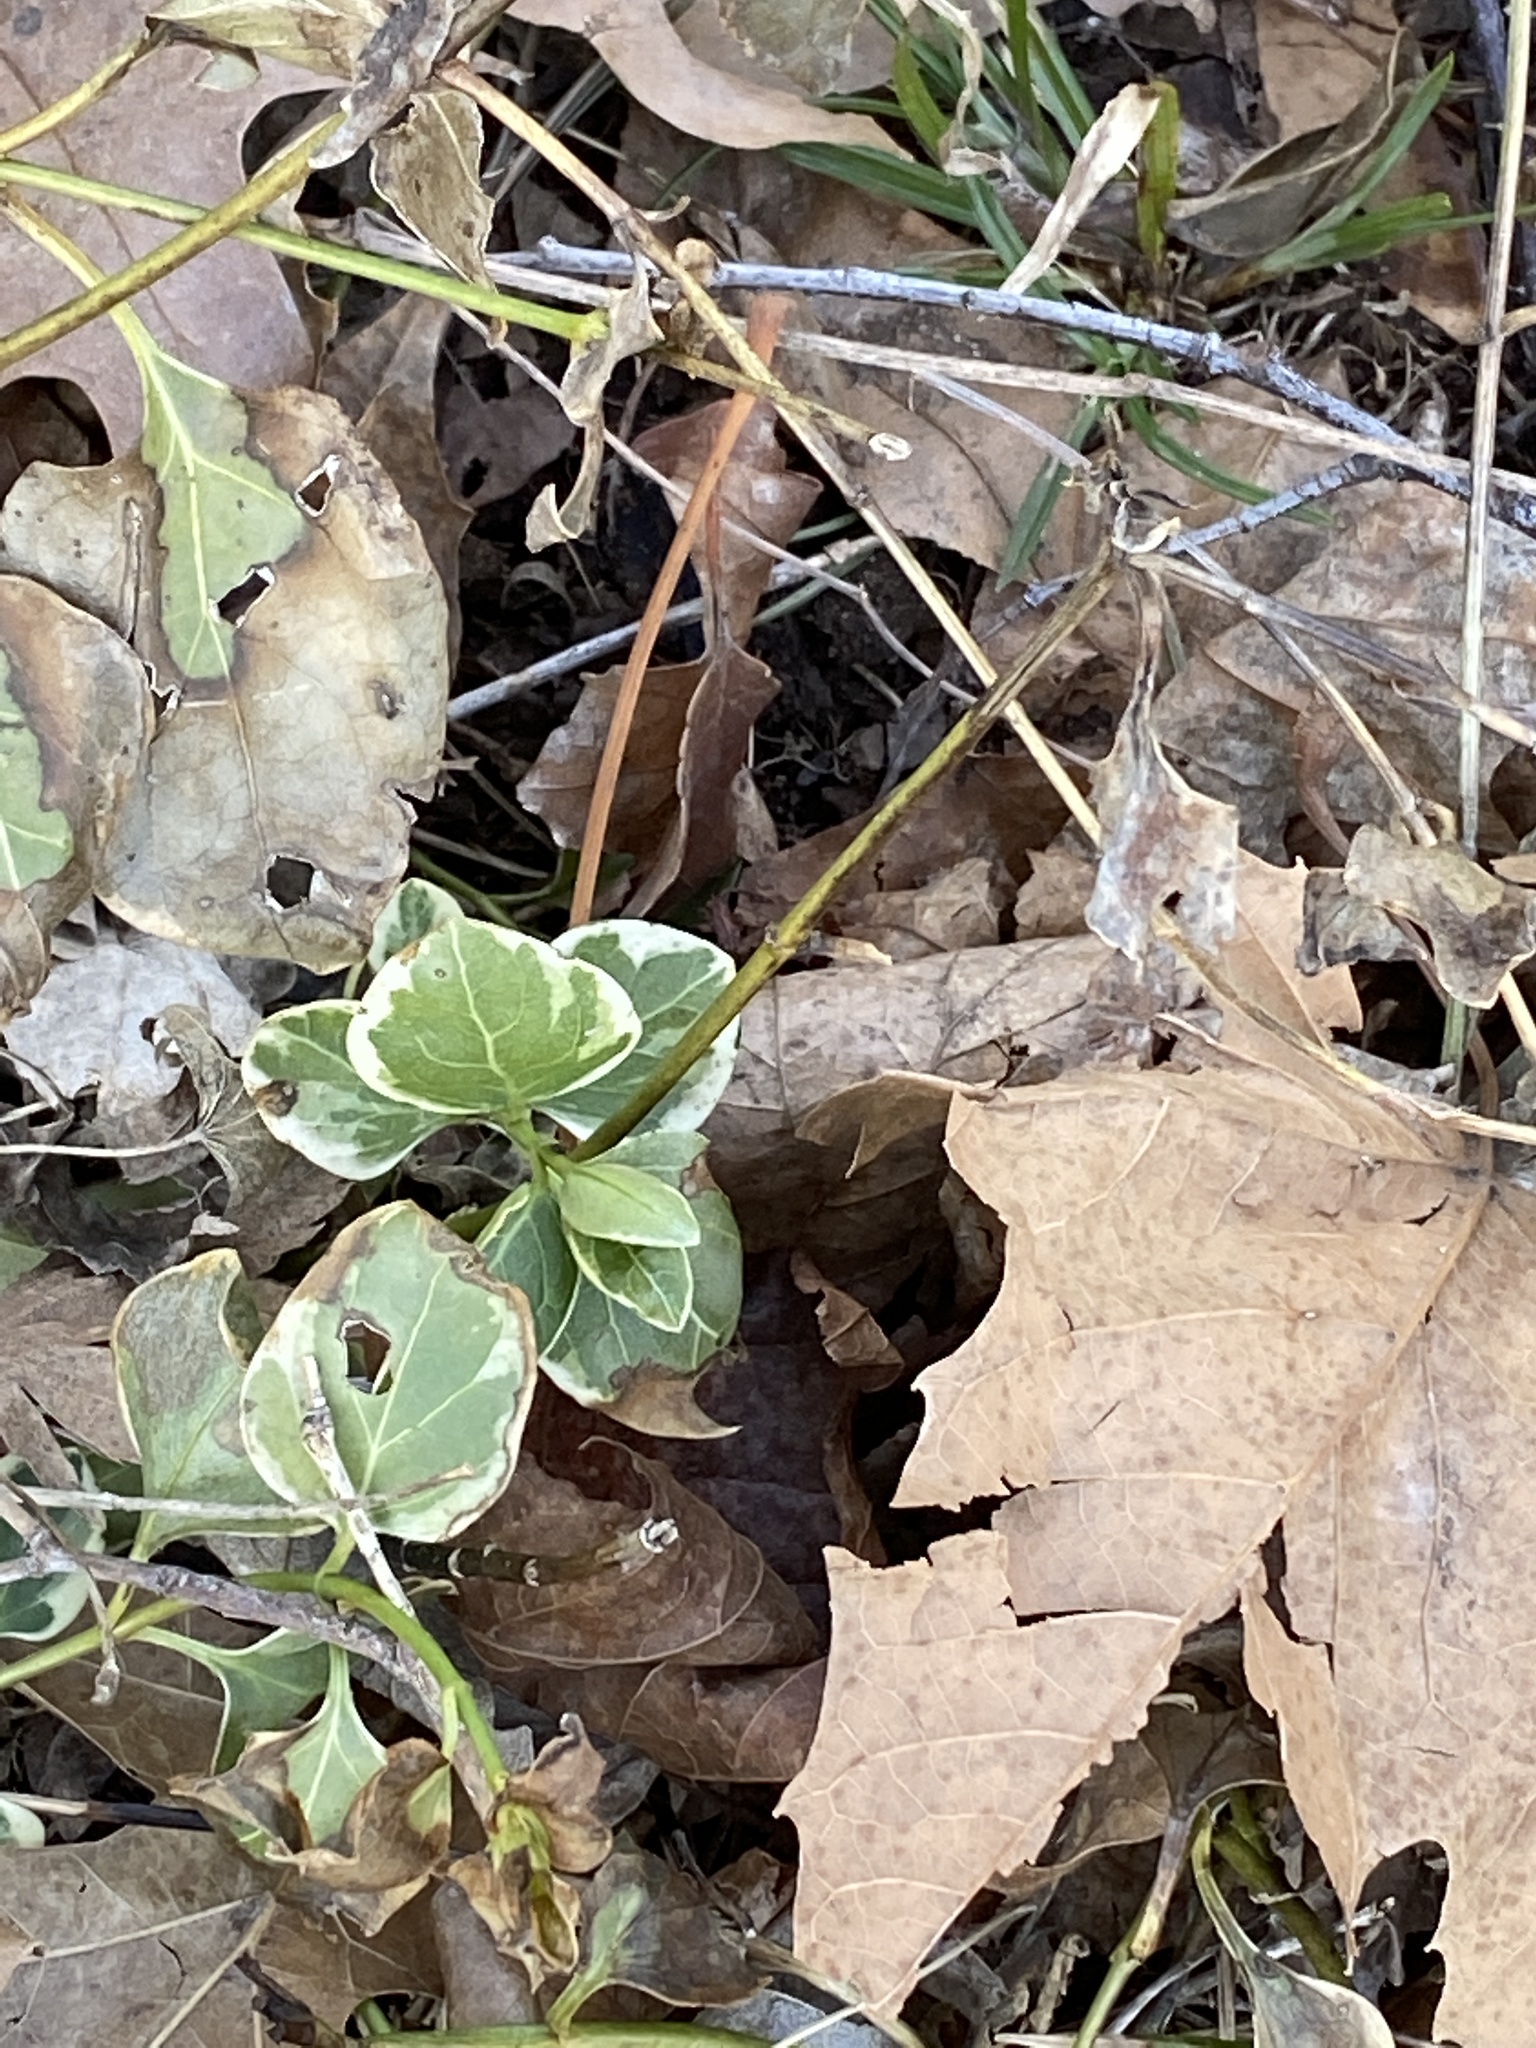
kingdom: Plantae
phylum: Tracheophyta
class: Magnoliopsida
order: Gentianales
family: Apocynaceae
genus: Vinca
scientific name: Vinca major
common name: Greater periwinkle
